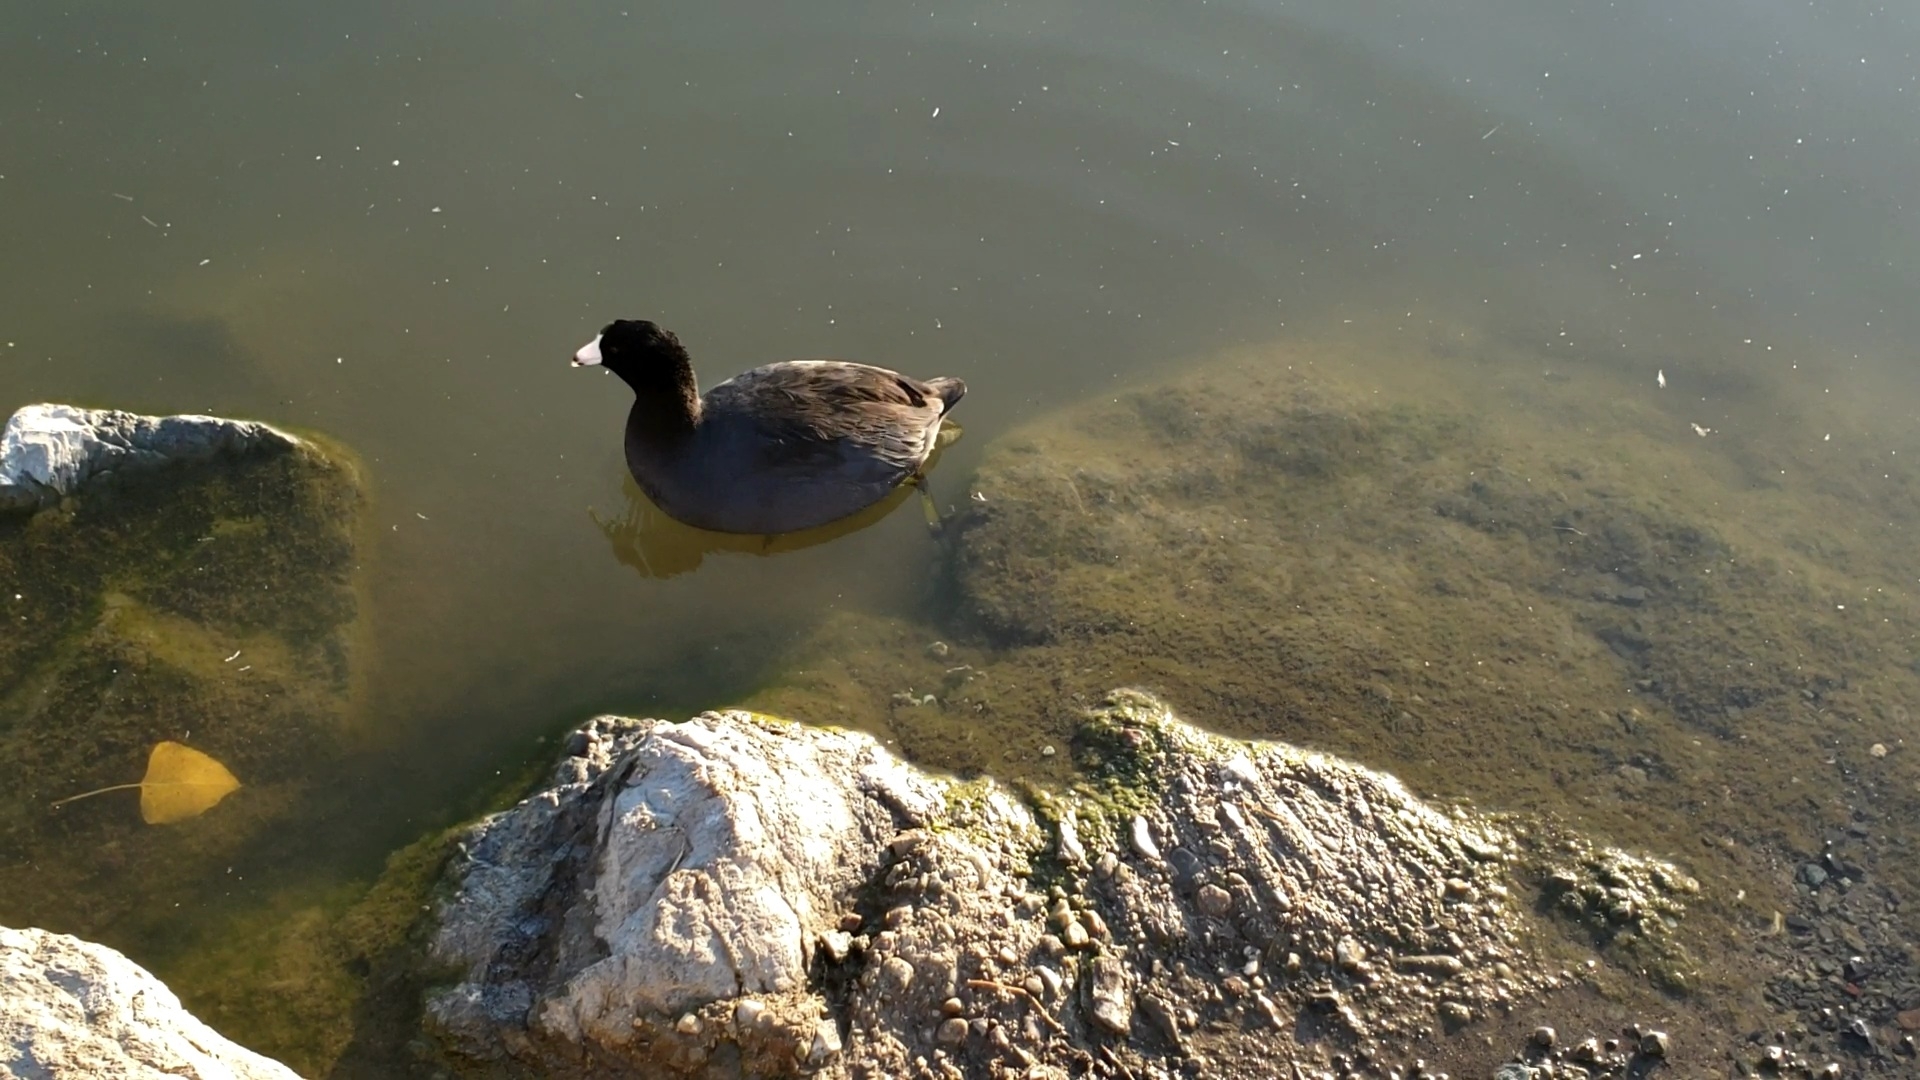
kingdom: Animalia
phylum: Chordata
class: Aves
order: Gruiformes
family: Rallidae
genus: Fulica
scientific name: Fulica americana
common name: American coot
